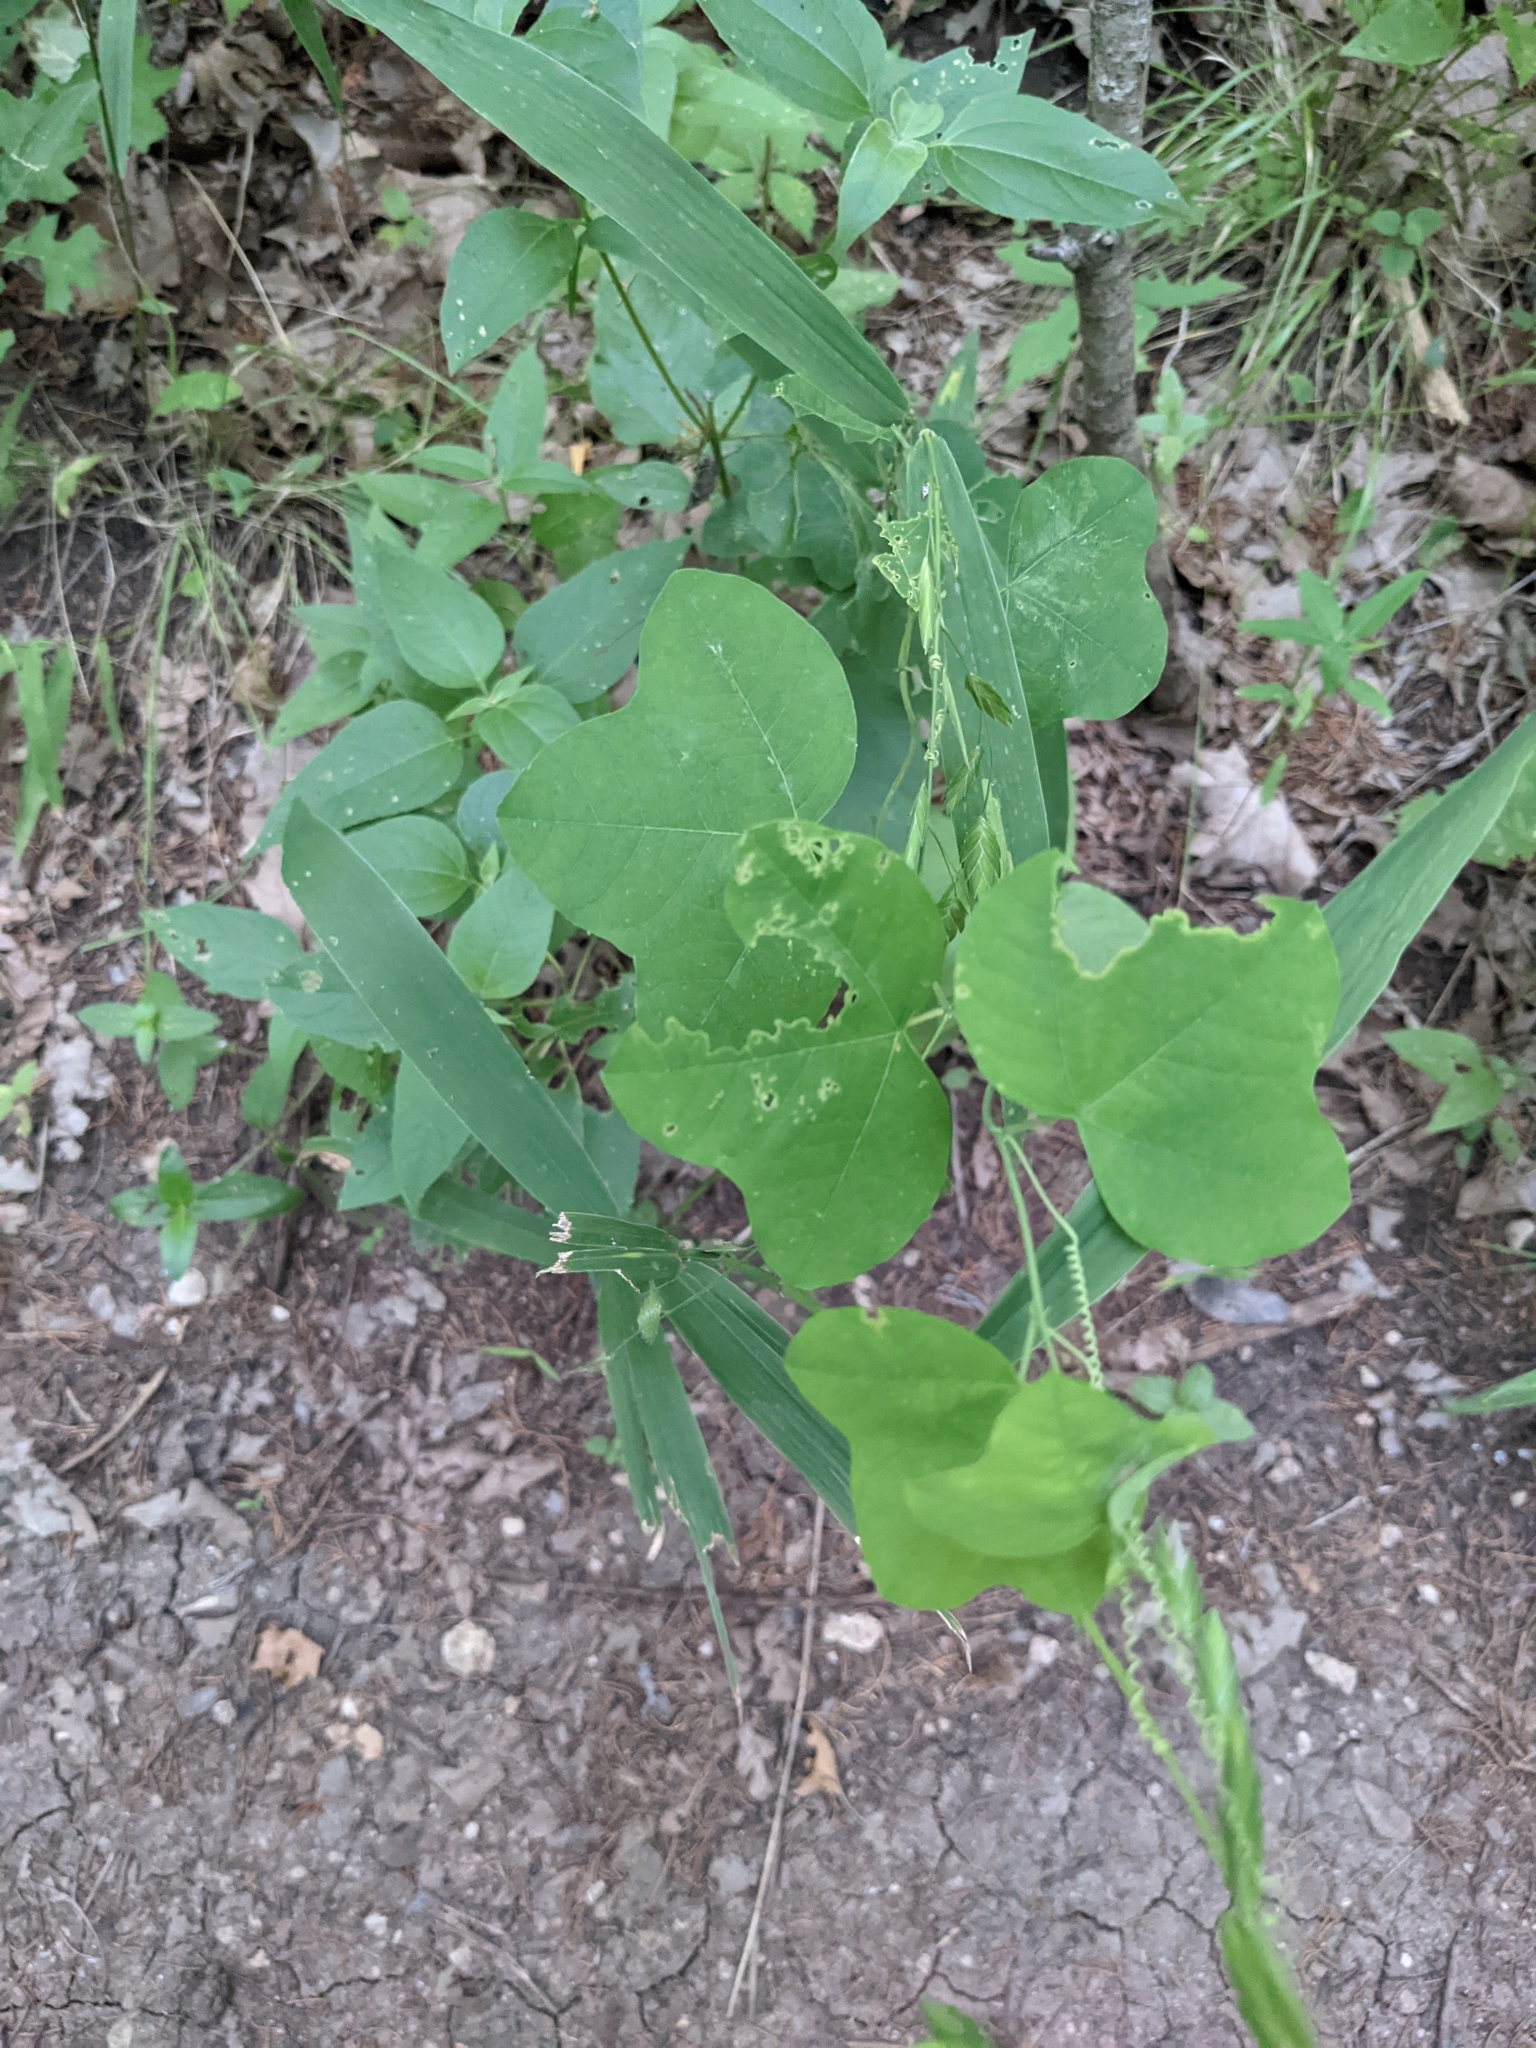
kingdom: Plantae
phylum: Tracheophyta
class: Magnoliopsida
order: Malpighiales
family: Passifloraceae
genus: Passiflora
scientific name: Passiflora lutea
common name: Yellow passionflower
